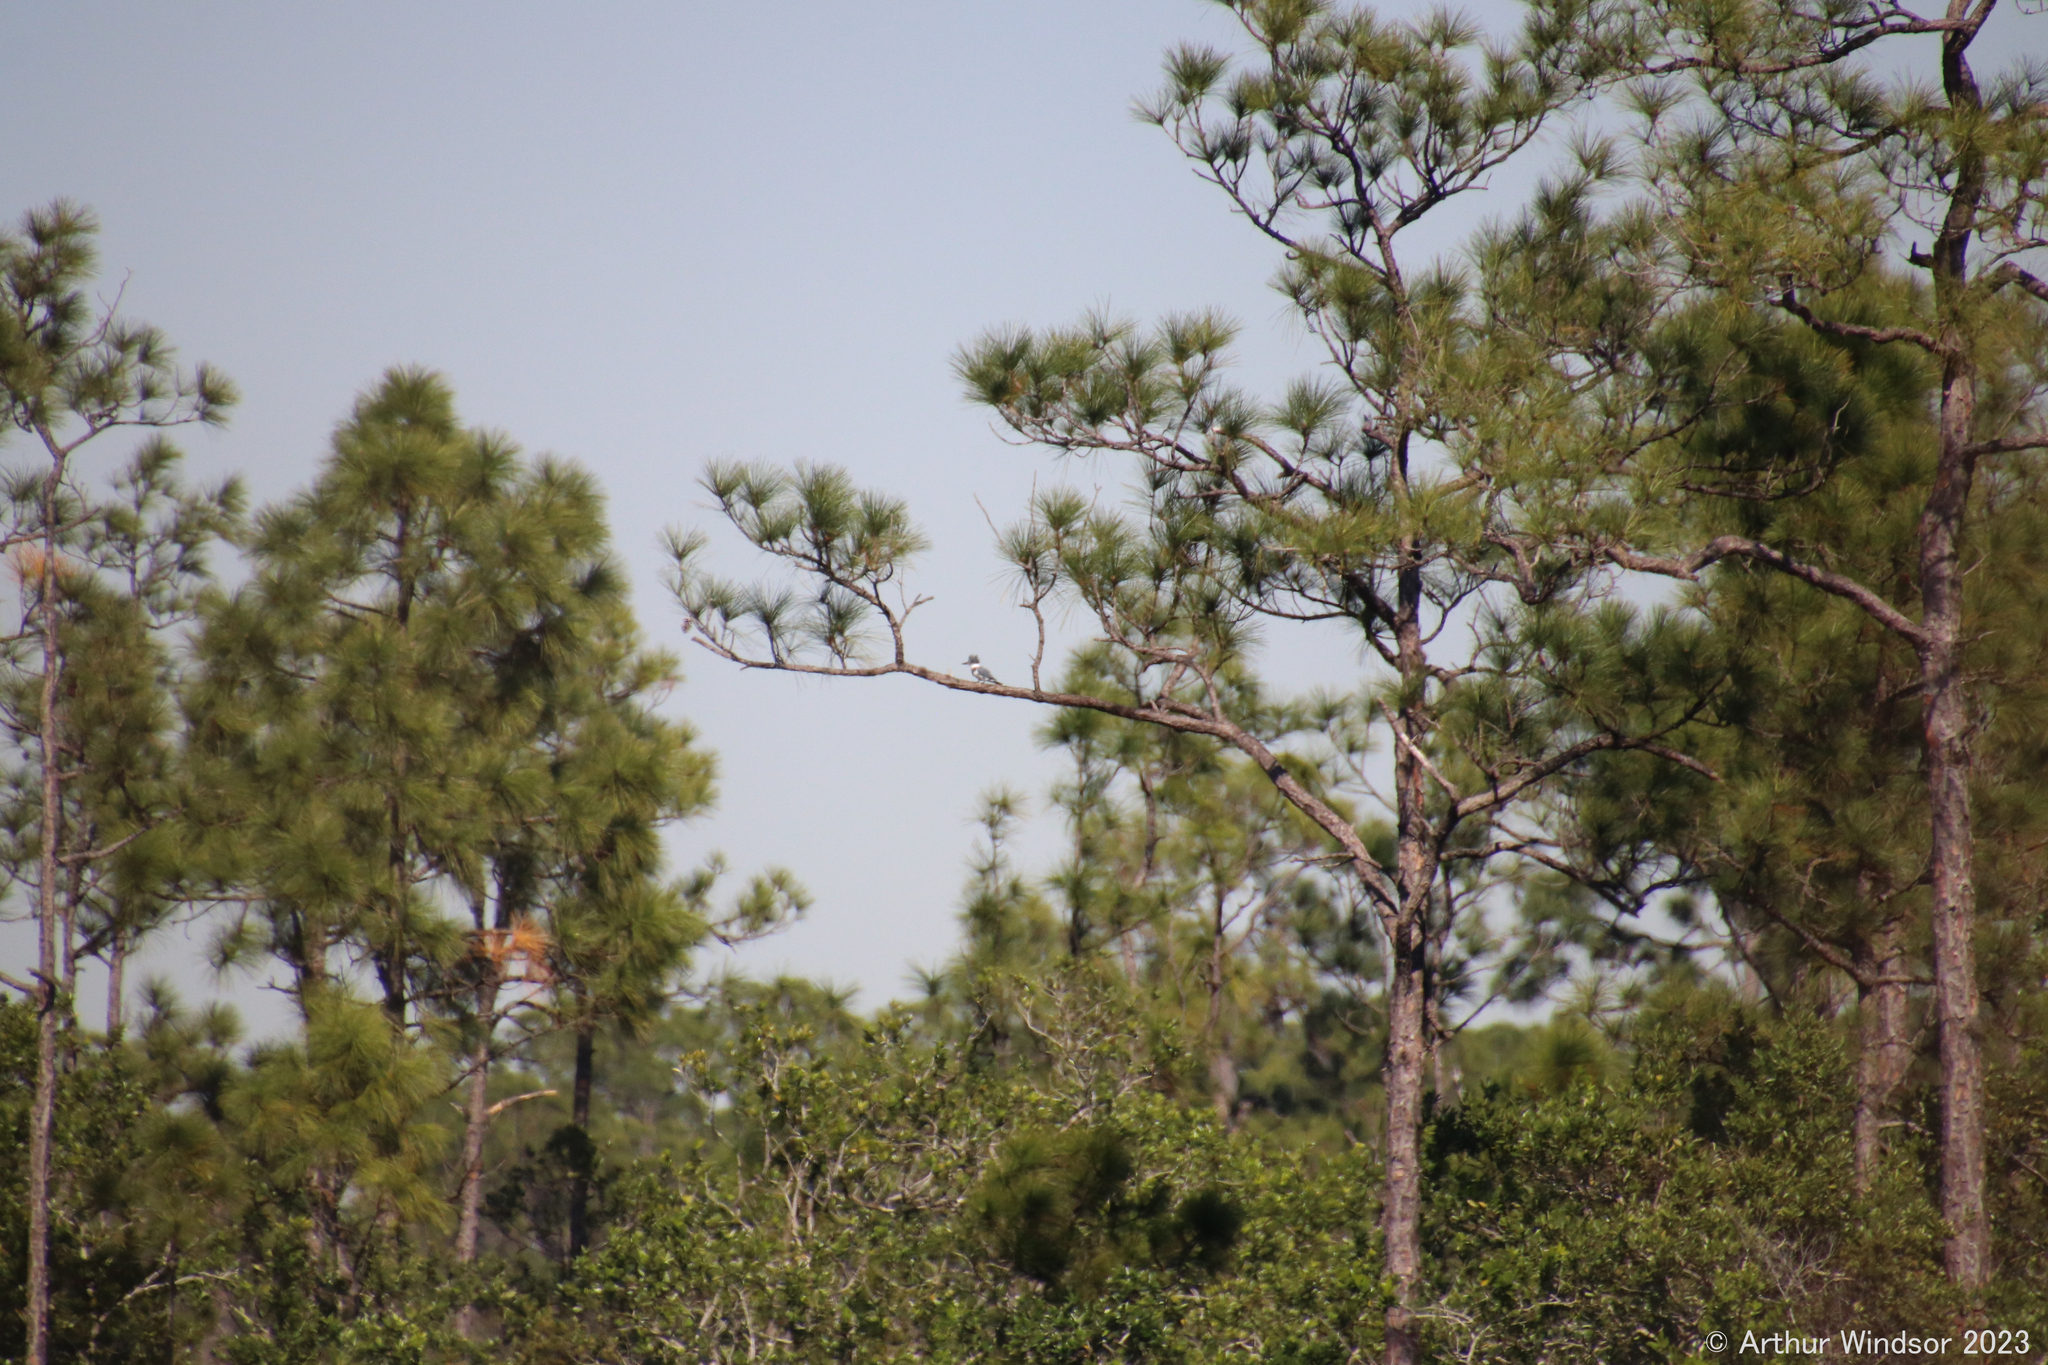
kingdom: Animalia
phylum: Chordata
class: Aves
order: Coraciiformes
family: Alcedinidae
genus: Megaceryle
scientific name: Megaceryle alcyon
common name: Belted kingfisher
